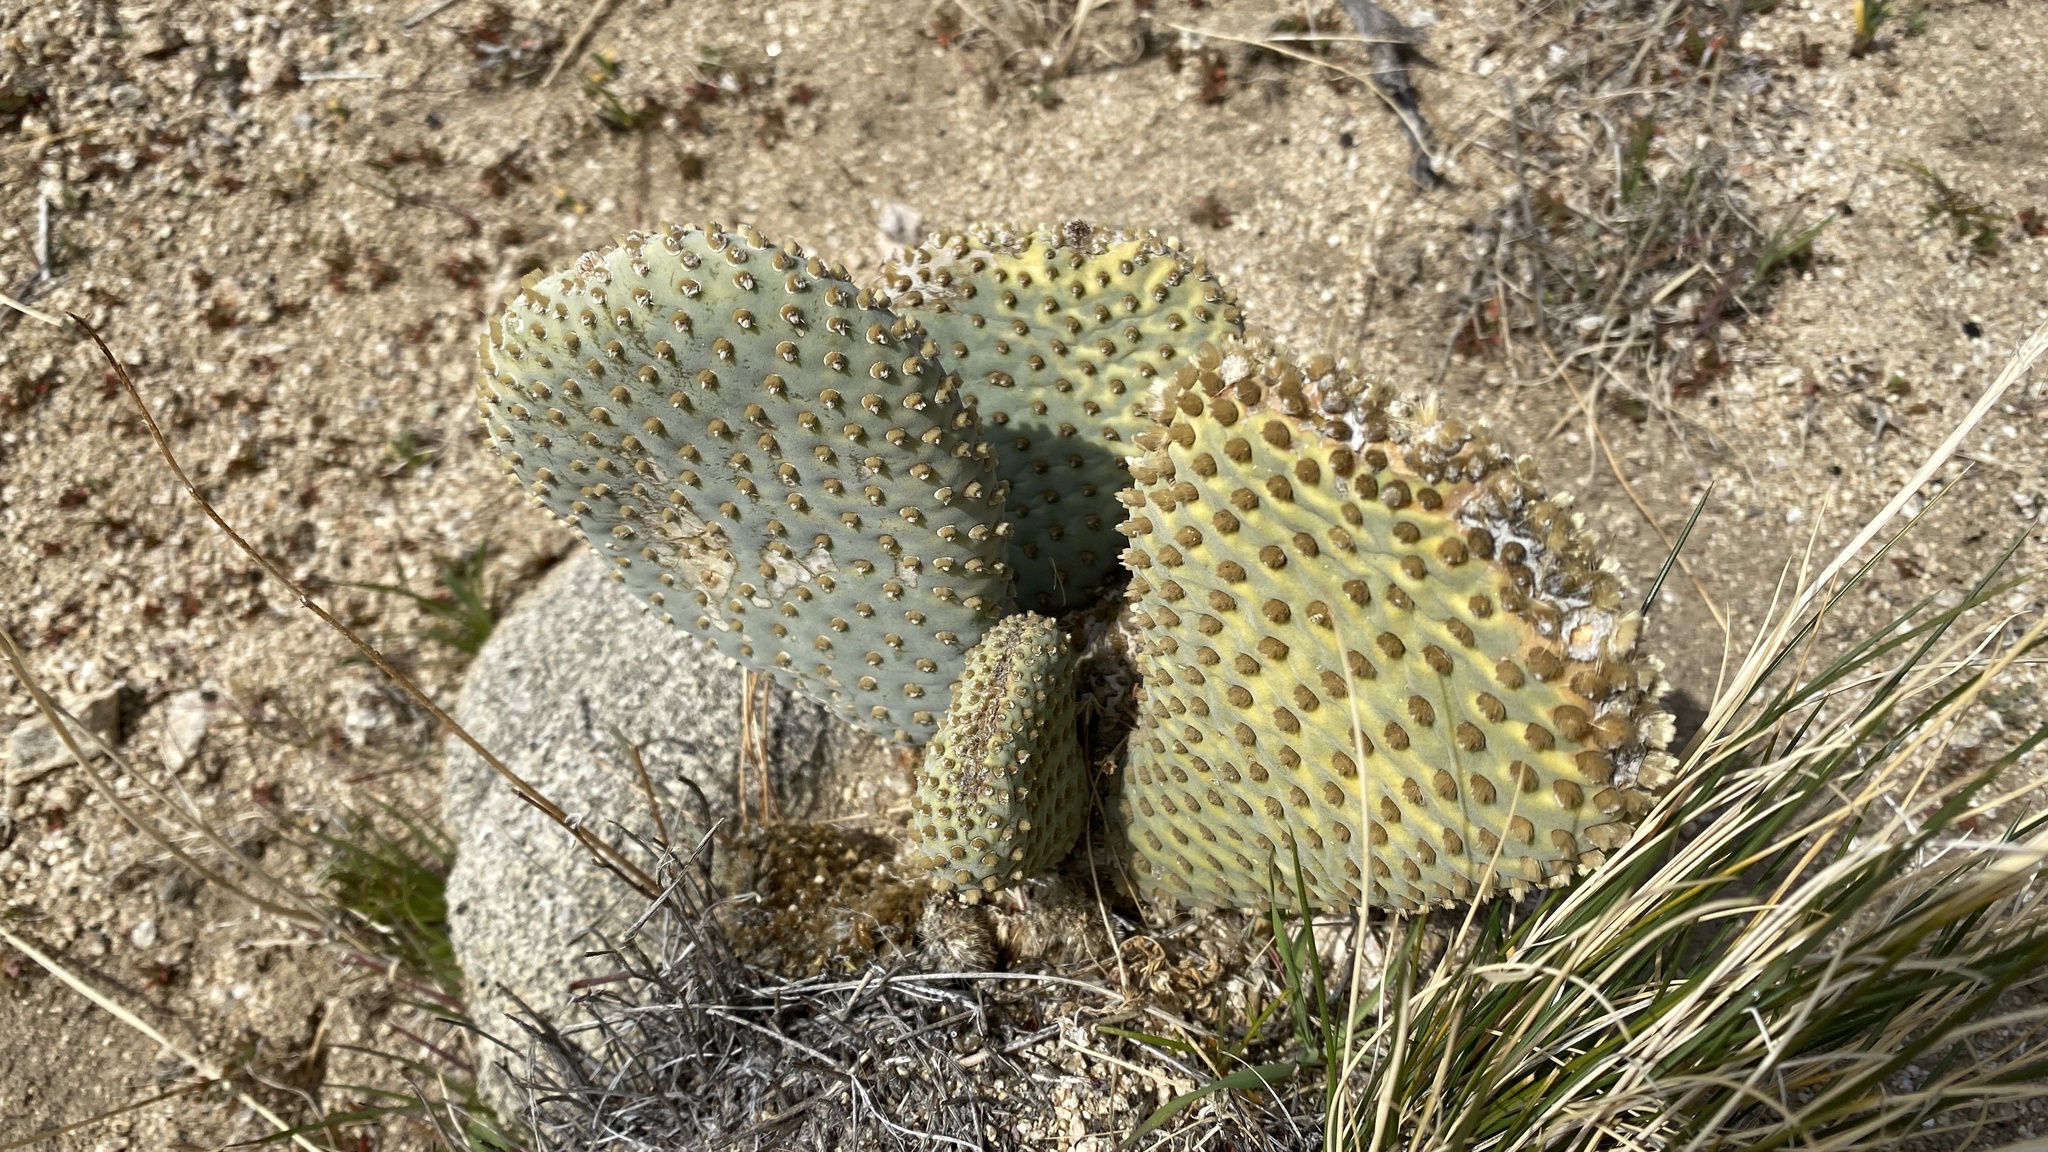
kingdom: Plantae
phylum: Tracheophyta
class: Magnoliopsida
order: Caryophyllales
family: Cactaceae
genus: Opuntia
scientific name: Opuntia basilaris
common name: Beavertail prickly-pear
